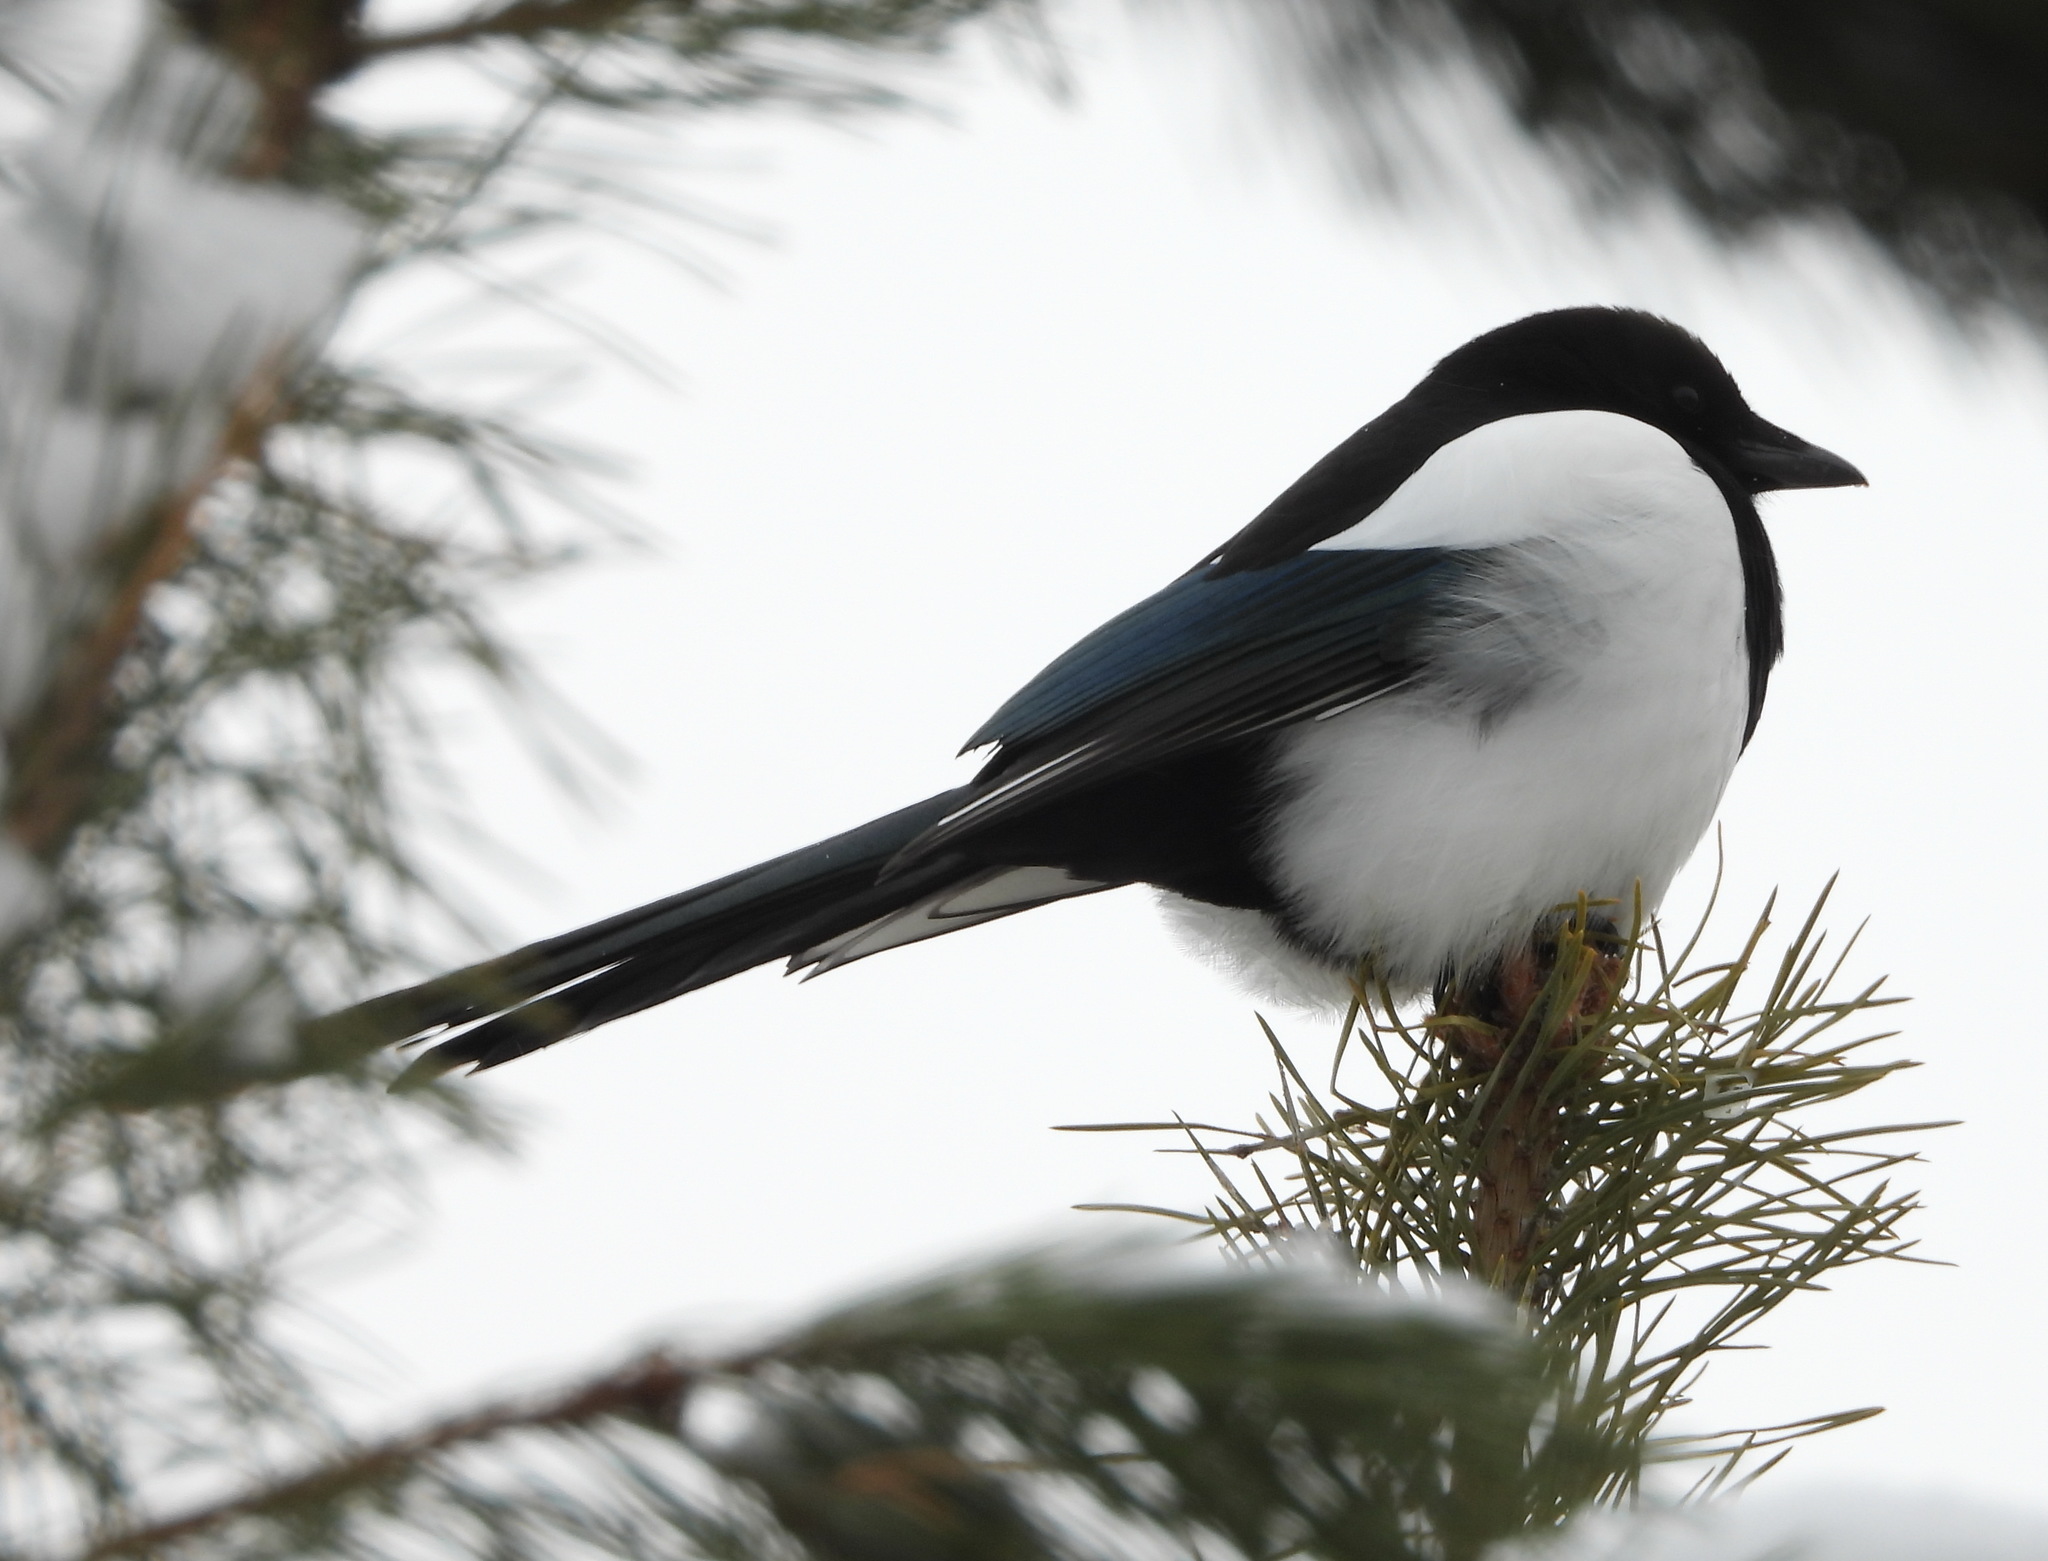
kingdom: Animalia
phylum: Chordata
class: Aves
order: Passeriformes
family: Corvidae
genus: Pica
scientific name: Pica pica
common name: Eurasian magpie
